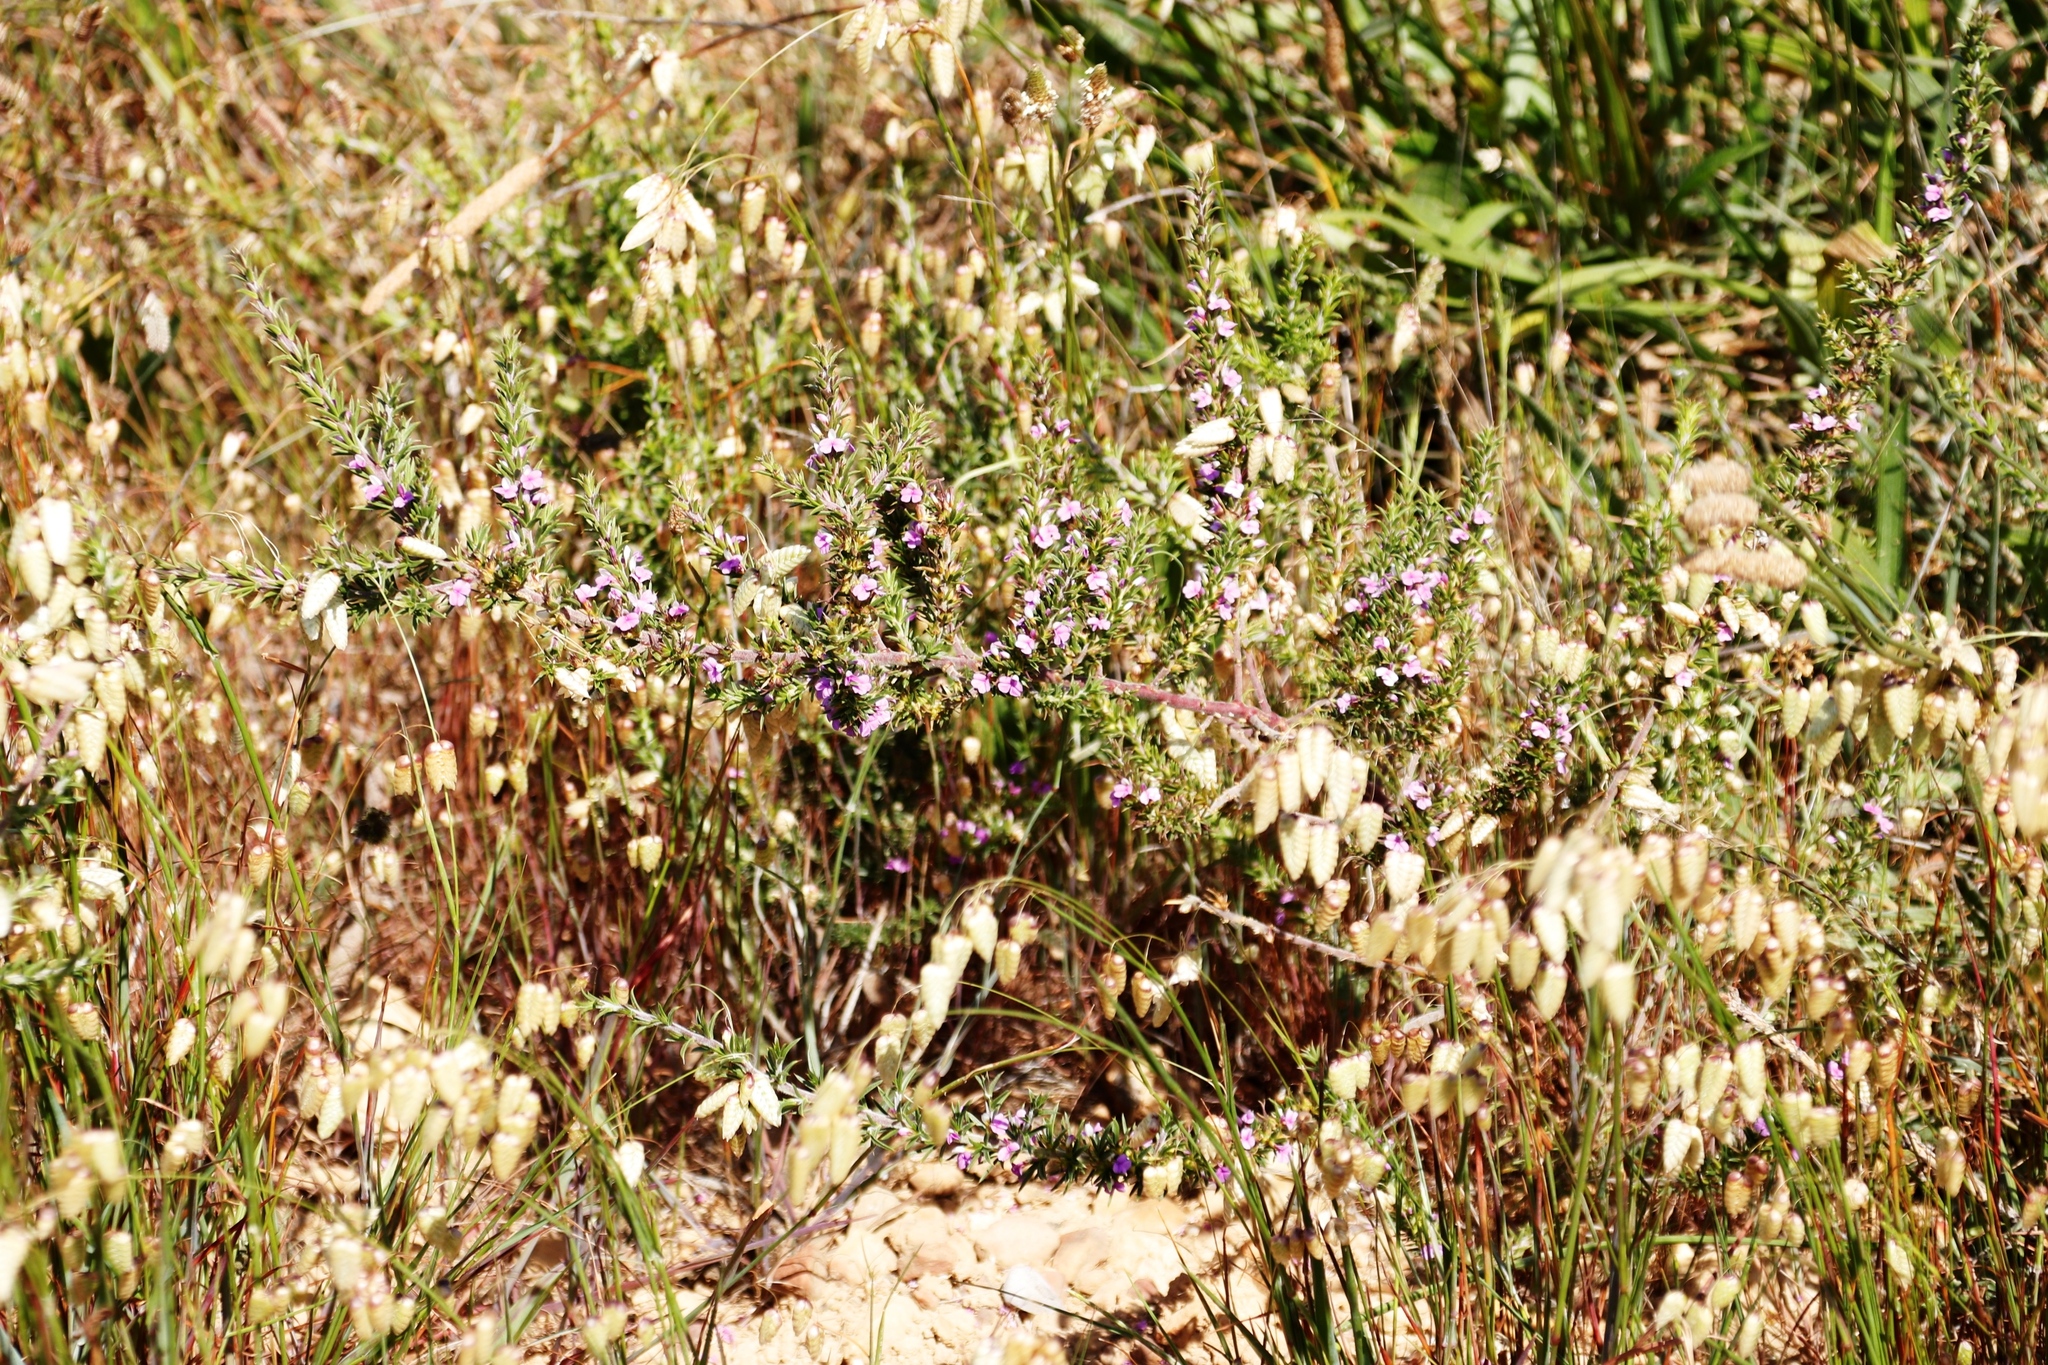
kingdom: Plantae
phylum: Tracheophyta
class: Magnoliopsida
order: Fabales
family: Polygalaceae
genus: Muraltia
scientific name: Muraltia heisteria
